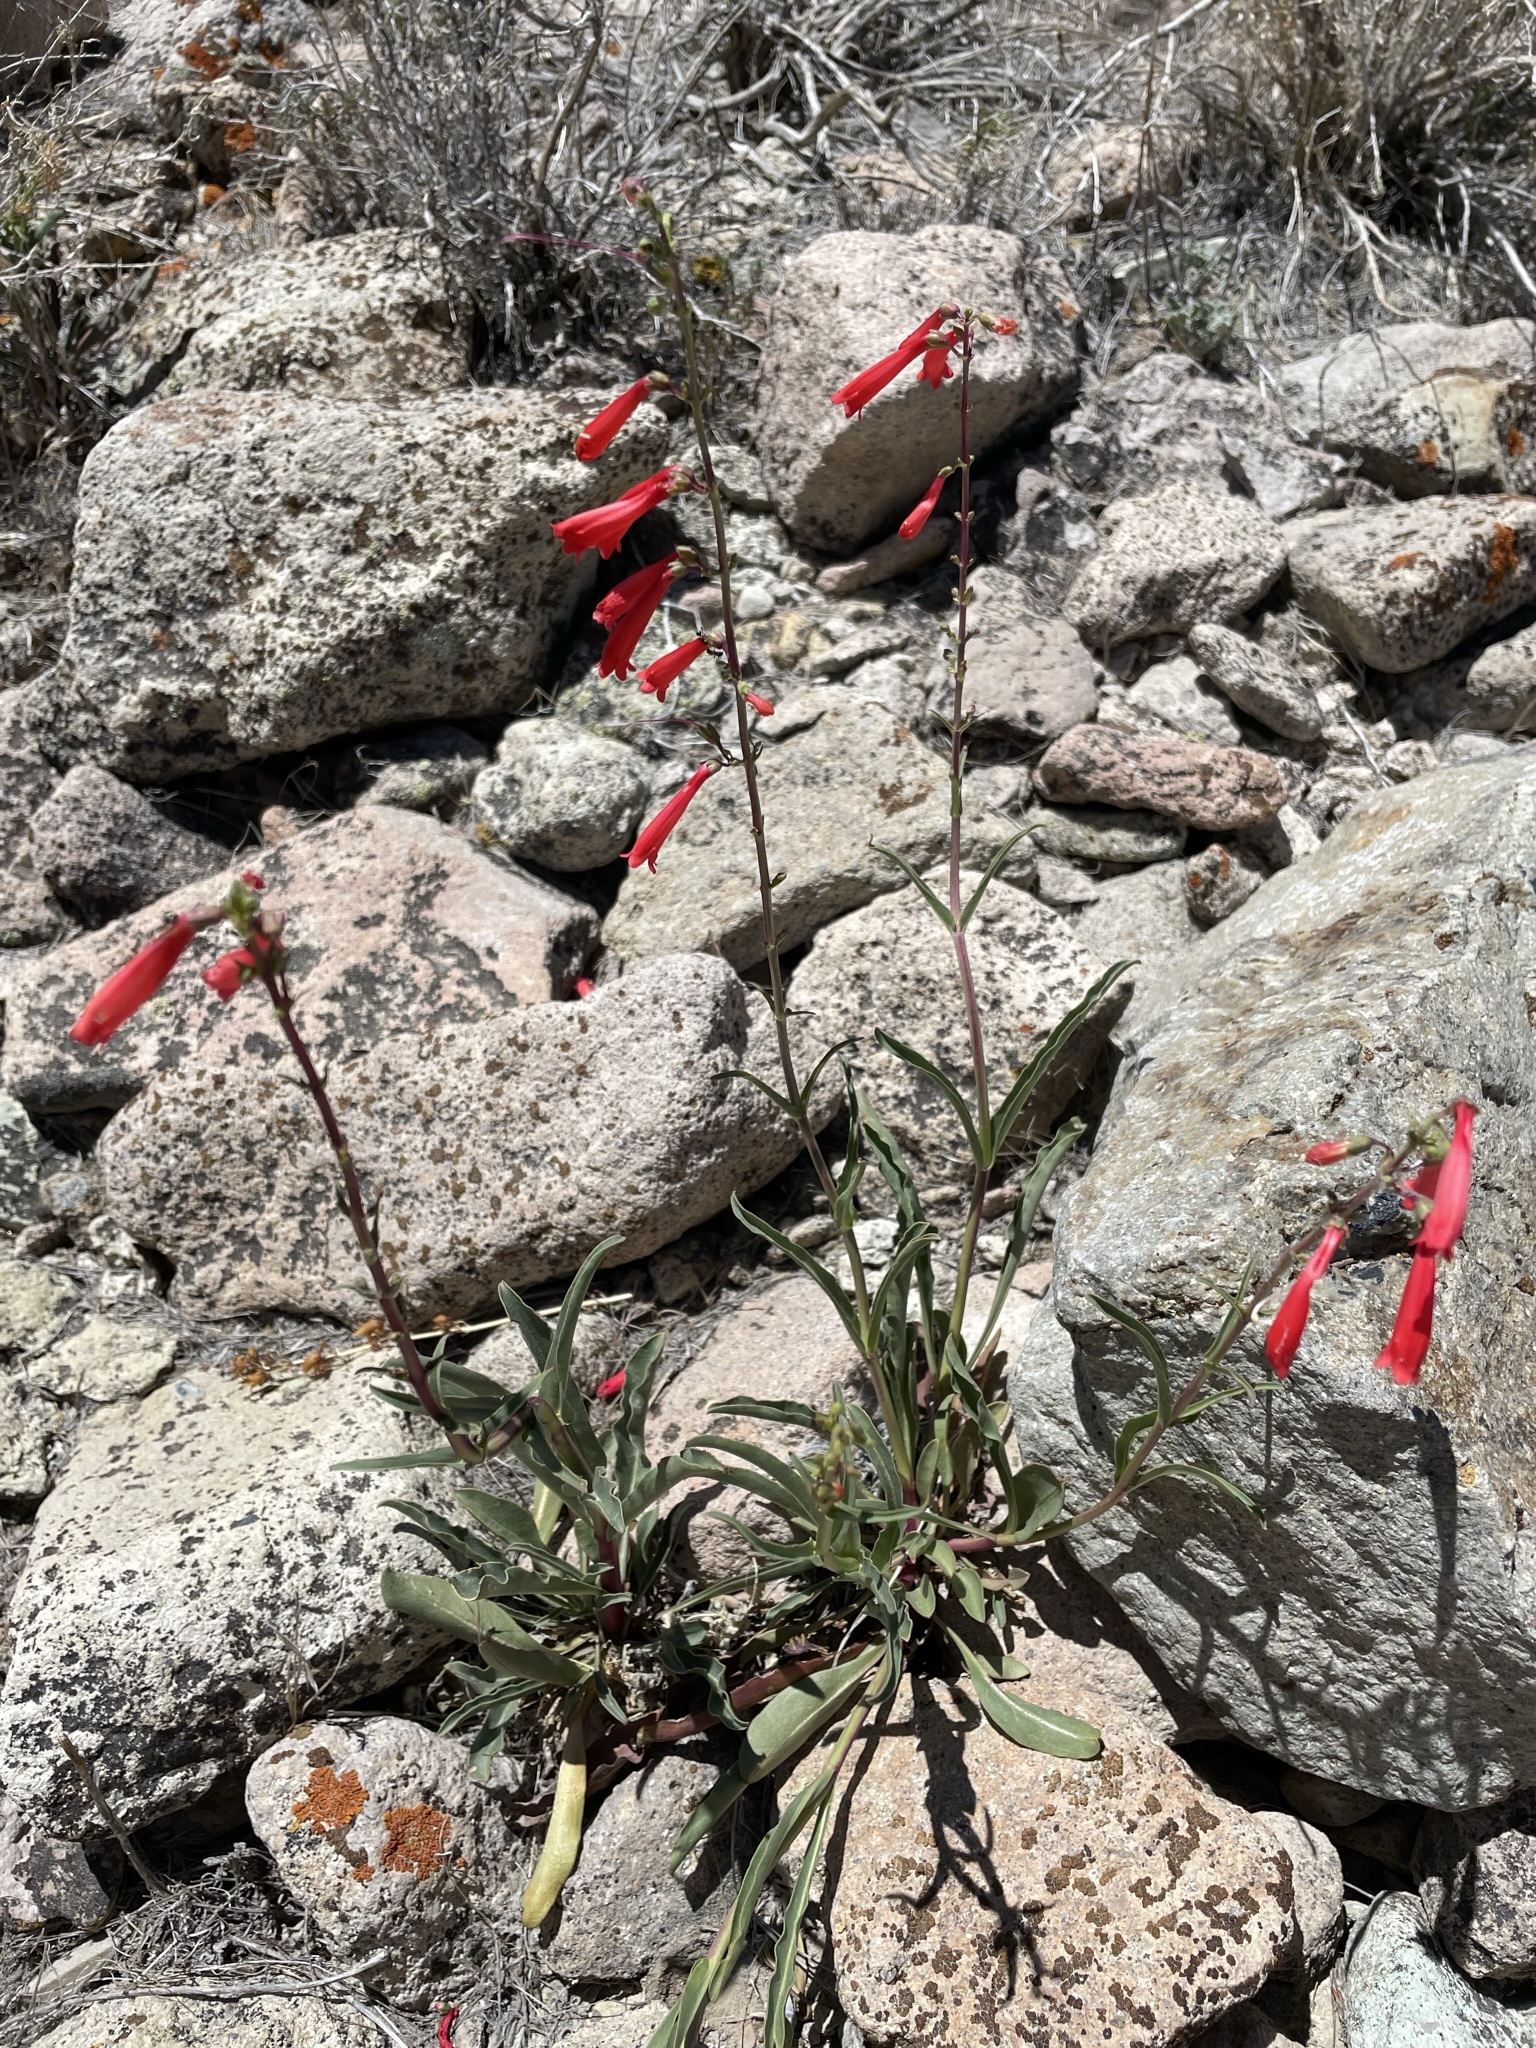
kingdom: Plantae
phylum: Tracheophyta
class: Magnoliopsida
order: Lamiales
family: Plantaginaceae
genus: Penstemon
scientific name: Penstemon eatonii
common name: Eaton's penstemon
